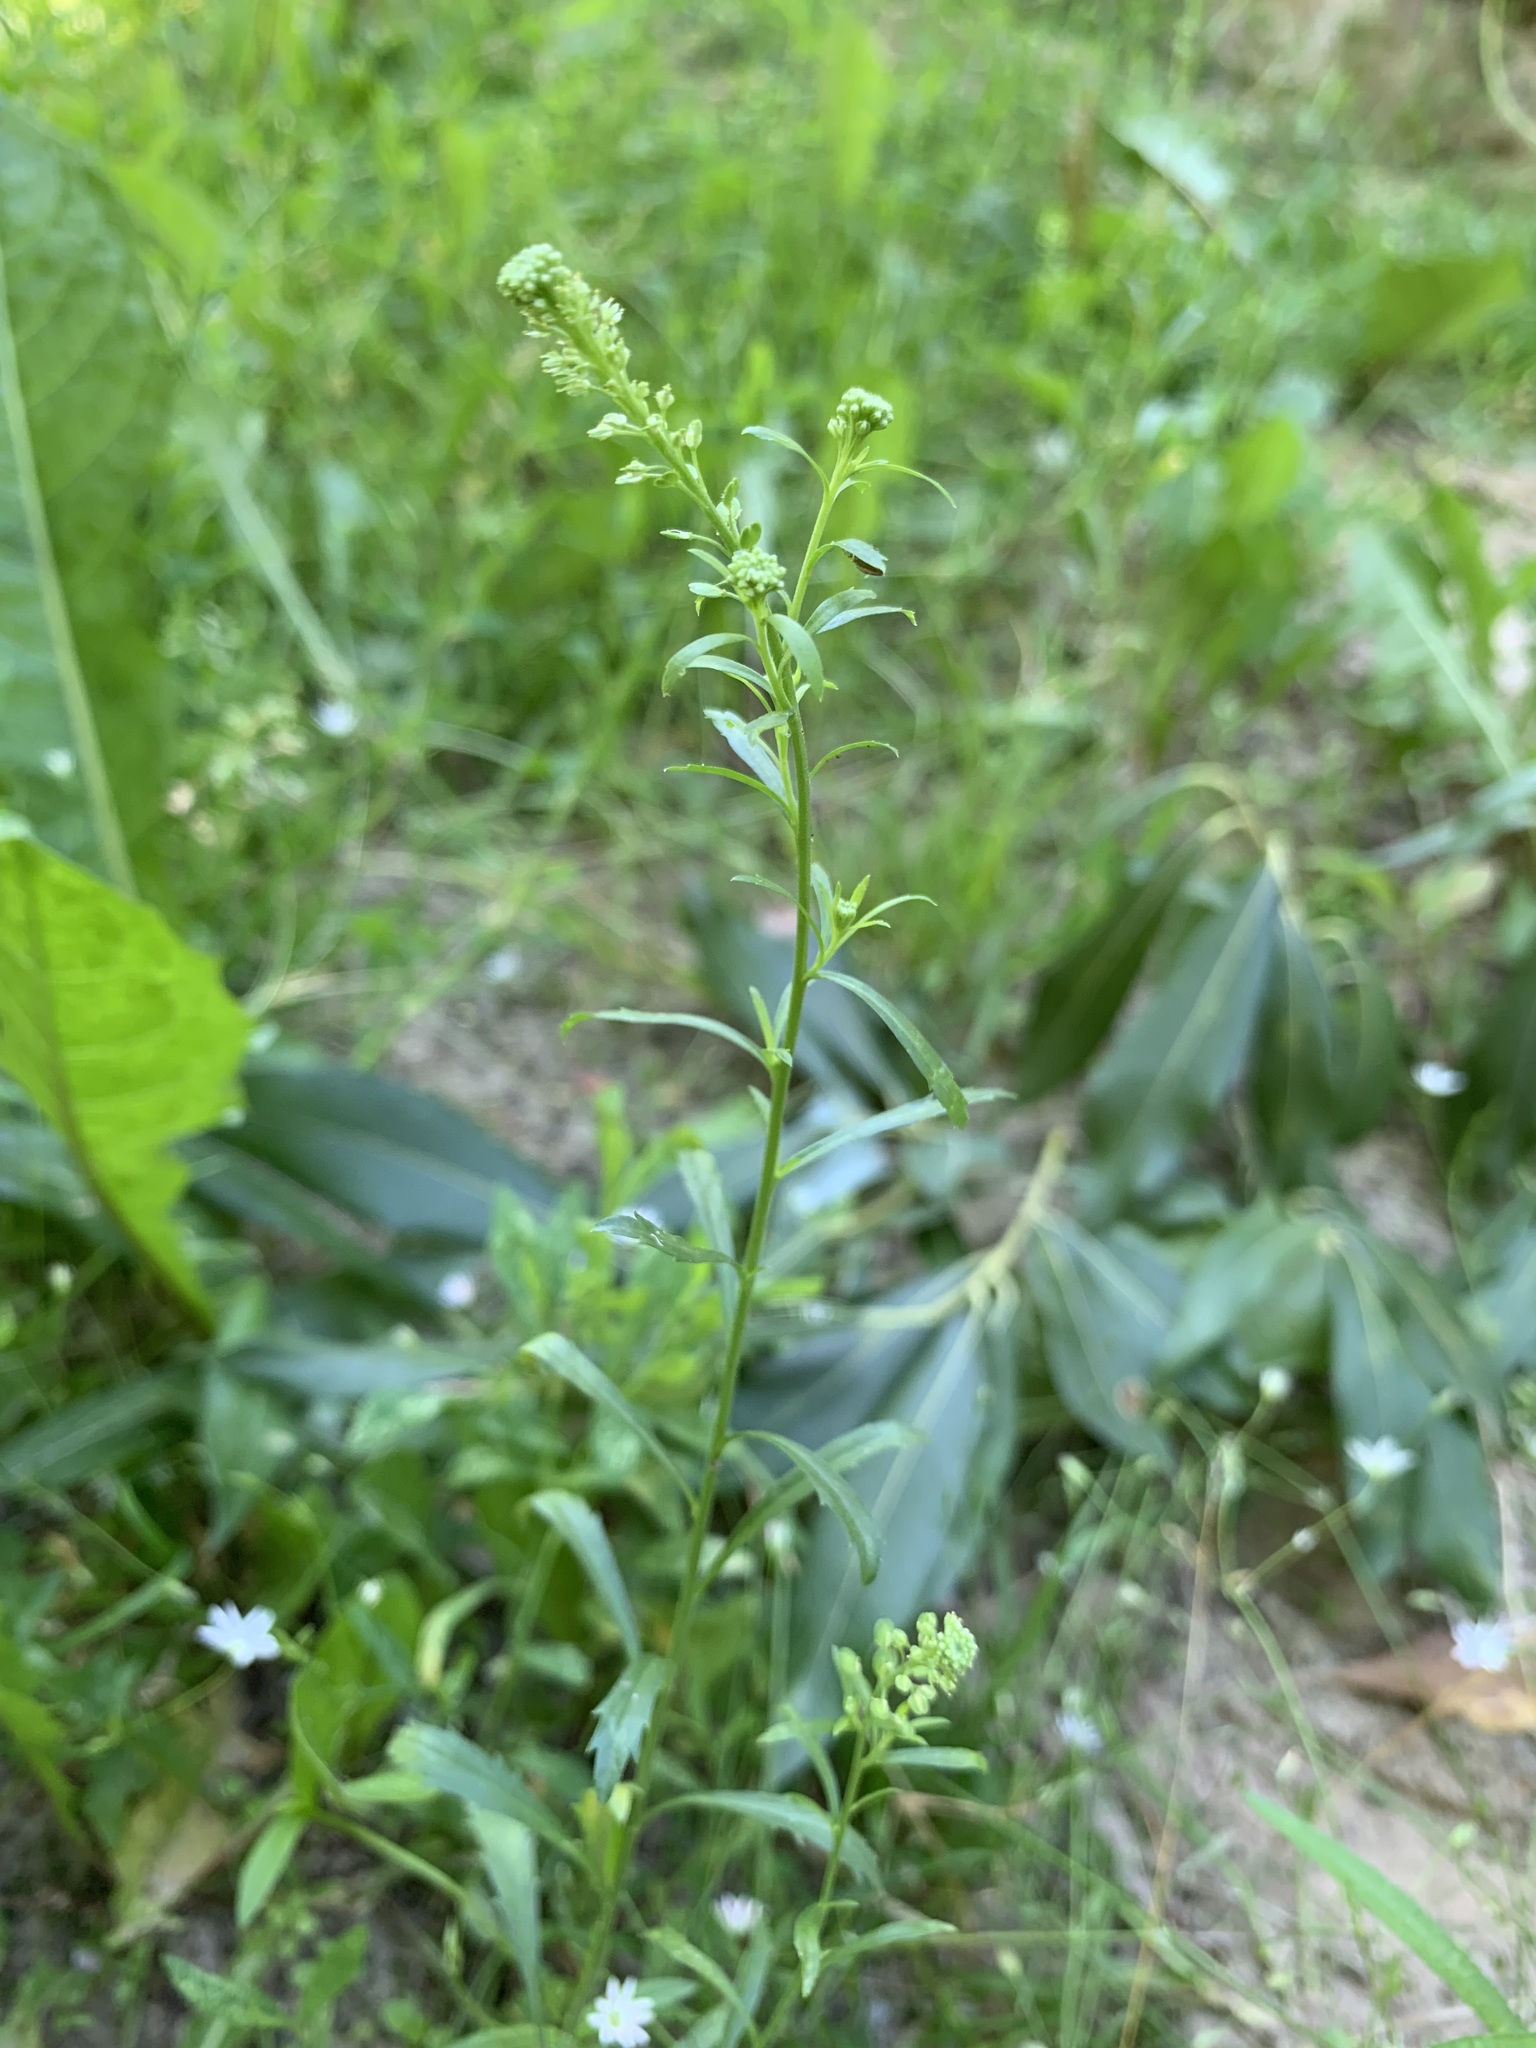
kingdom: Plantae
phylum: Tracheophyta
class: Magnoliopsida
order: Brassicales
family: Brassicaceae
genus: Lepidium
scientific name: Lepidium densiflorum
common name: Miner's pepperwort
